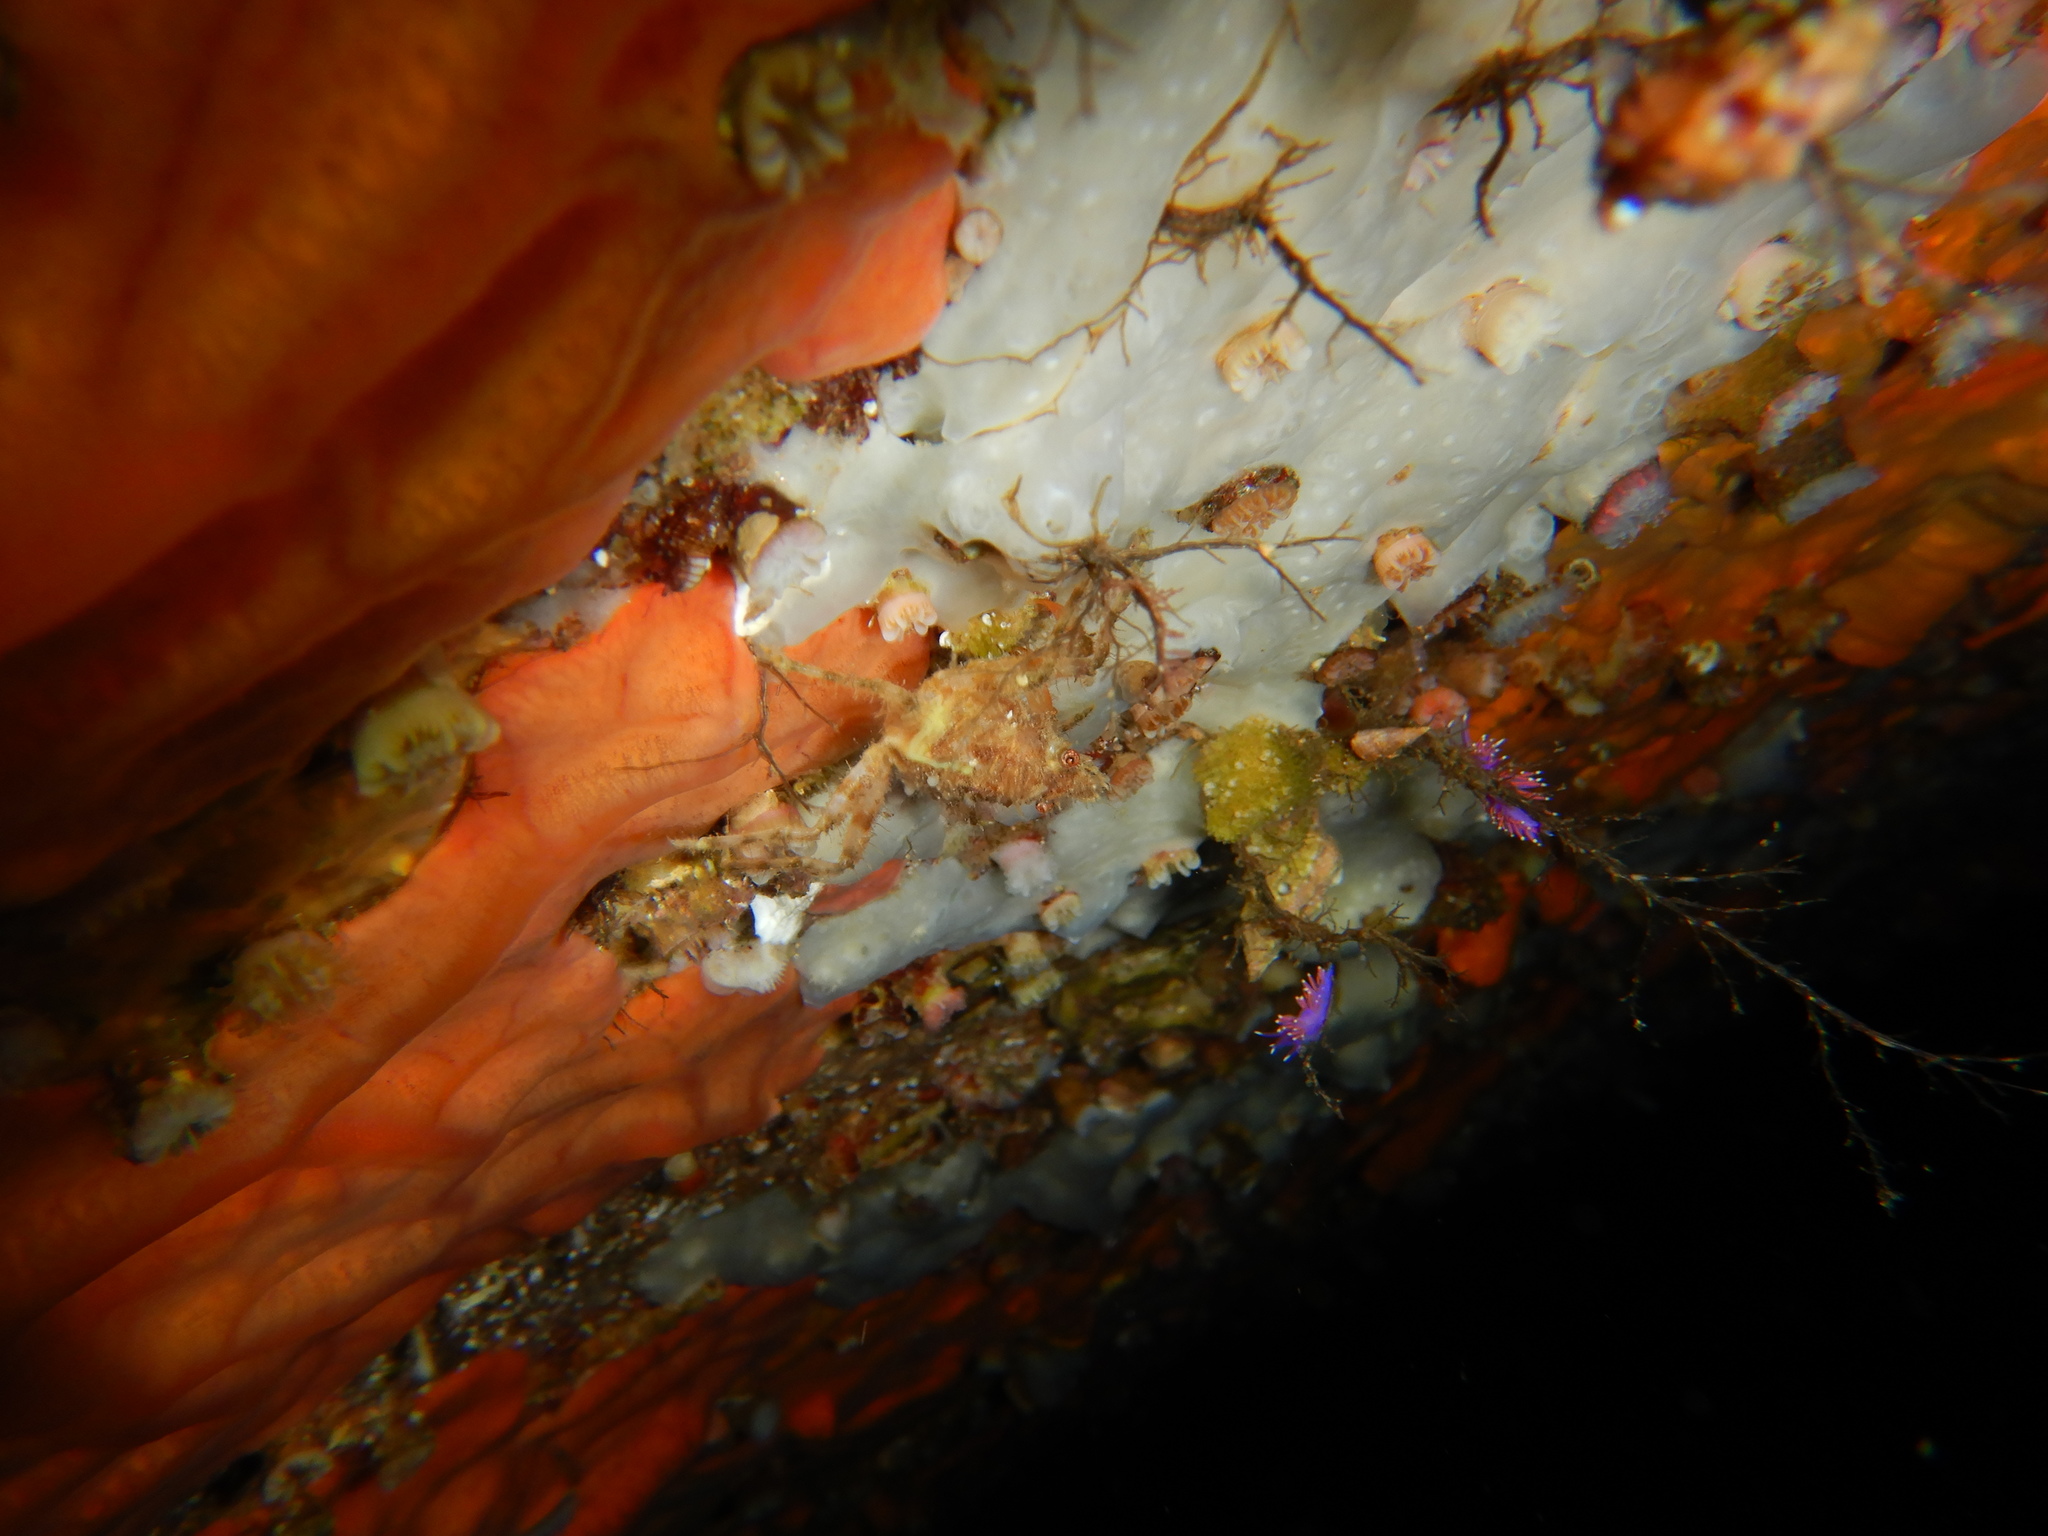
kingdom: Animalia
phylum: Arthropoda
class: Malacostraca
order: Decapoda
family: Epialtidae
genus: Herbstia
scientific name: Herbstia condyliata
